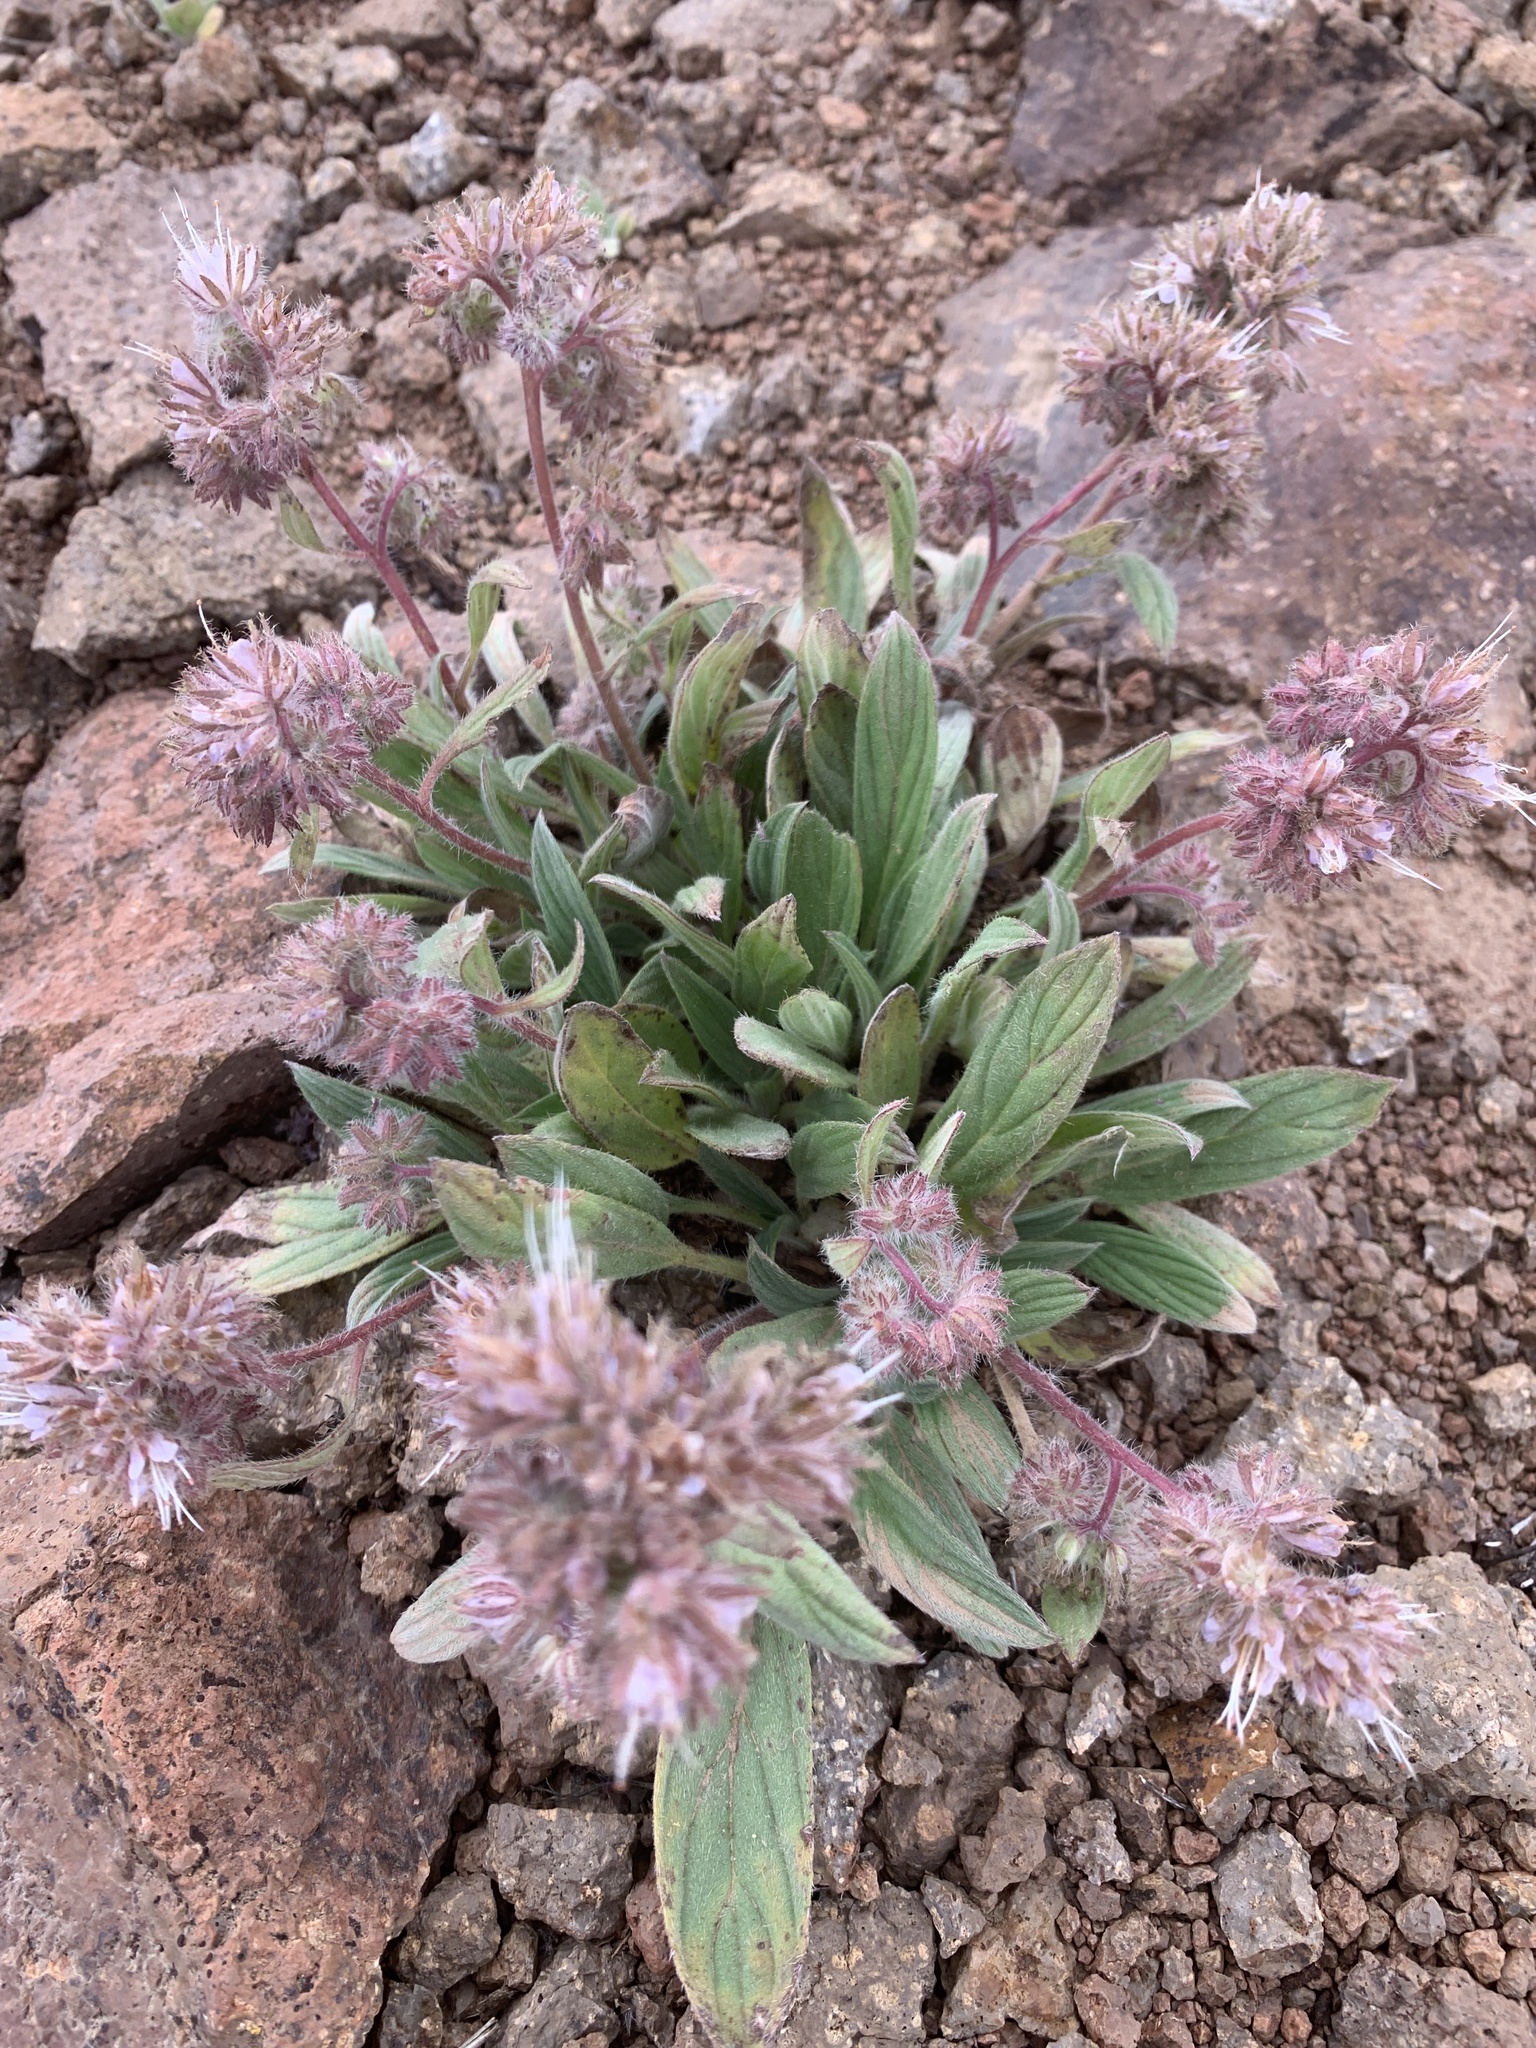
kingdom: Plantae
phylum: Tracheophyta
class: Magnoliopsida
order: Boraginales
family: Hydrophyllaceae
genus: Phacelia
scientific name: Phacelia hastata
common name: Silver-leaved phacelia
